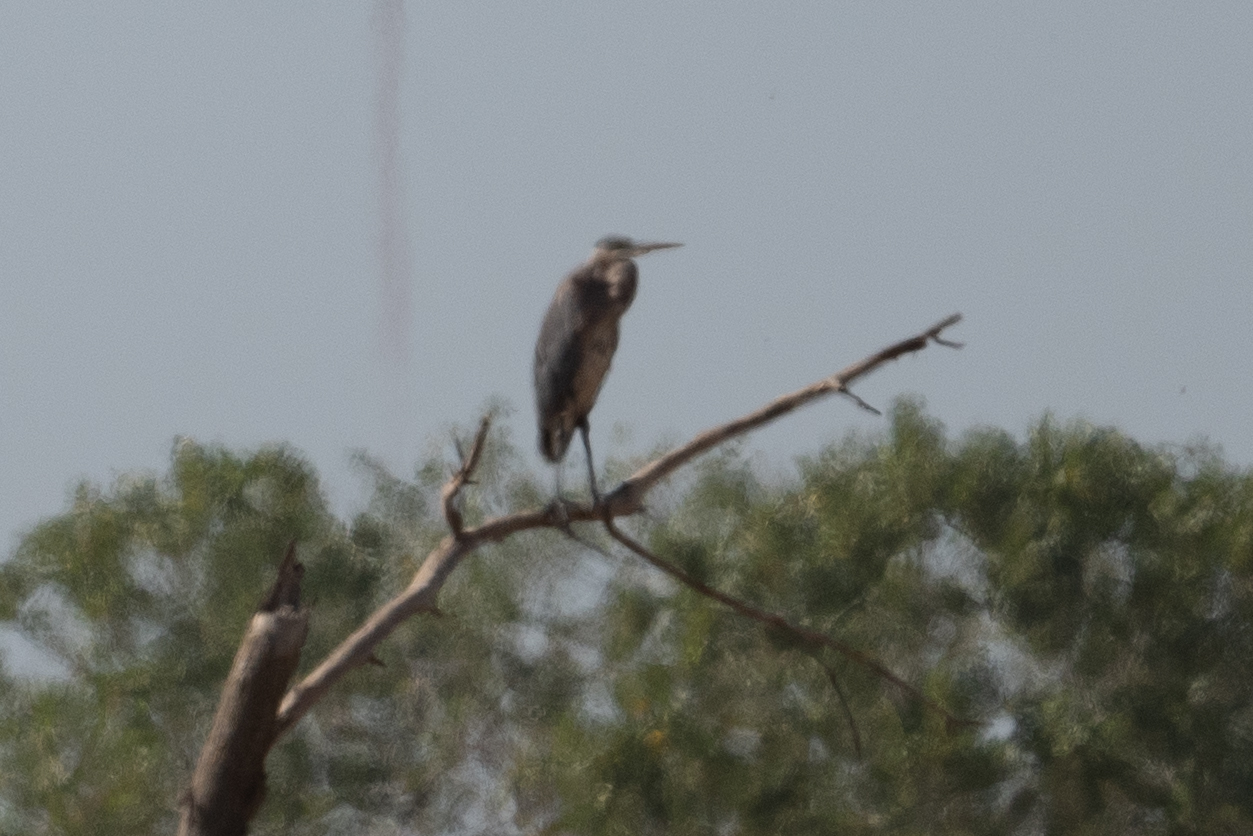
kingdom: Animalia
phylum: Chordata
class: Aves
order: Pelecaniformes
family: Ardeidae
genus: Ardea
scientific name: Ardea herodias
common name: Great blue heron
